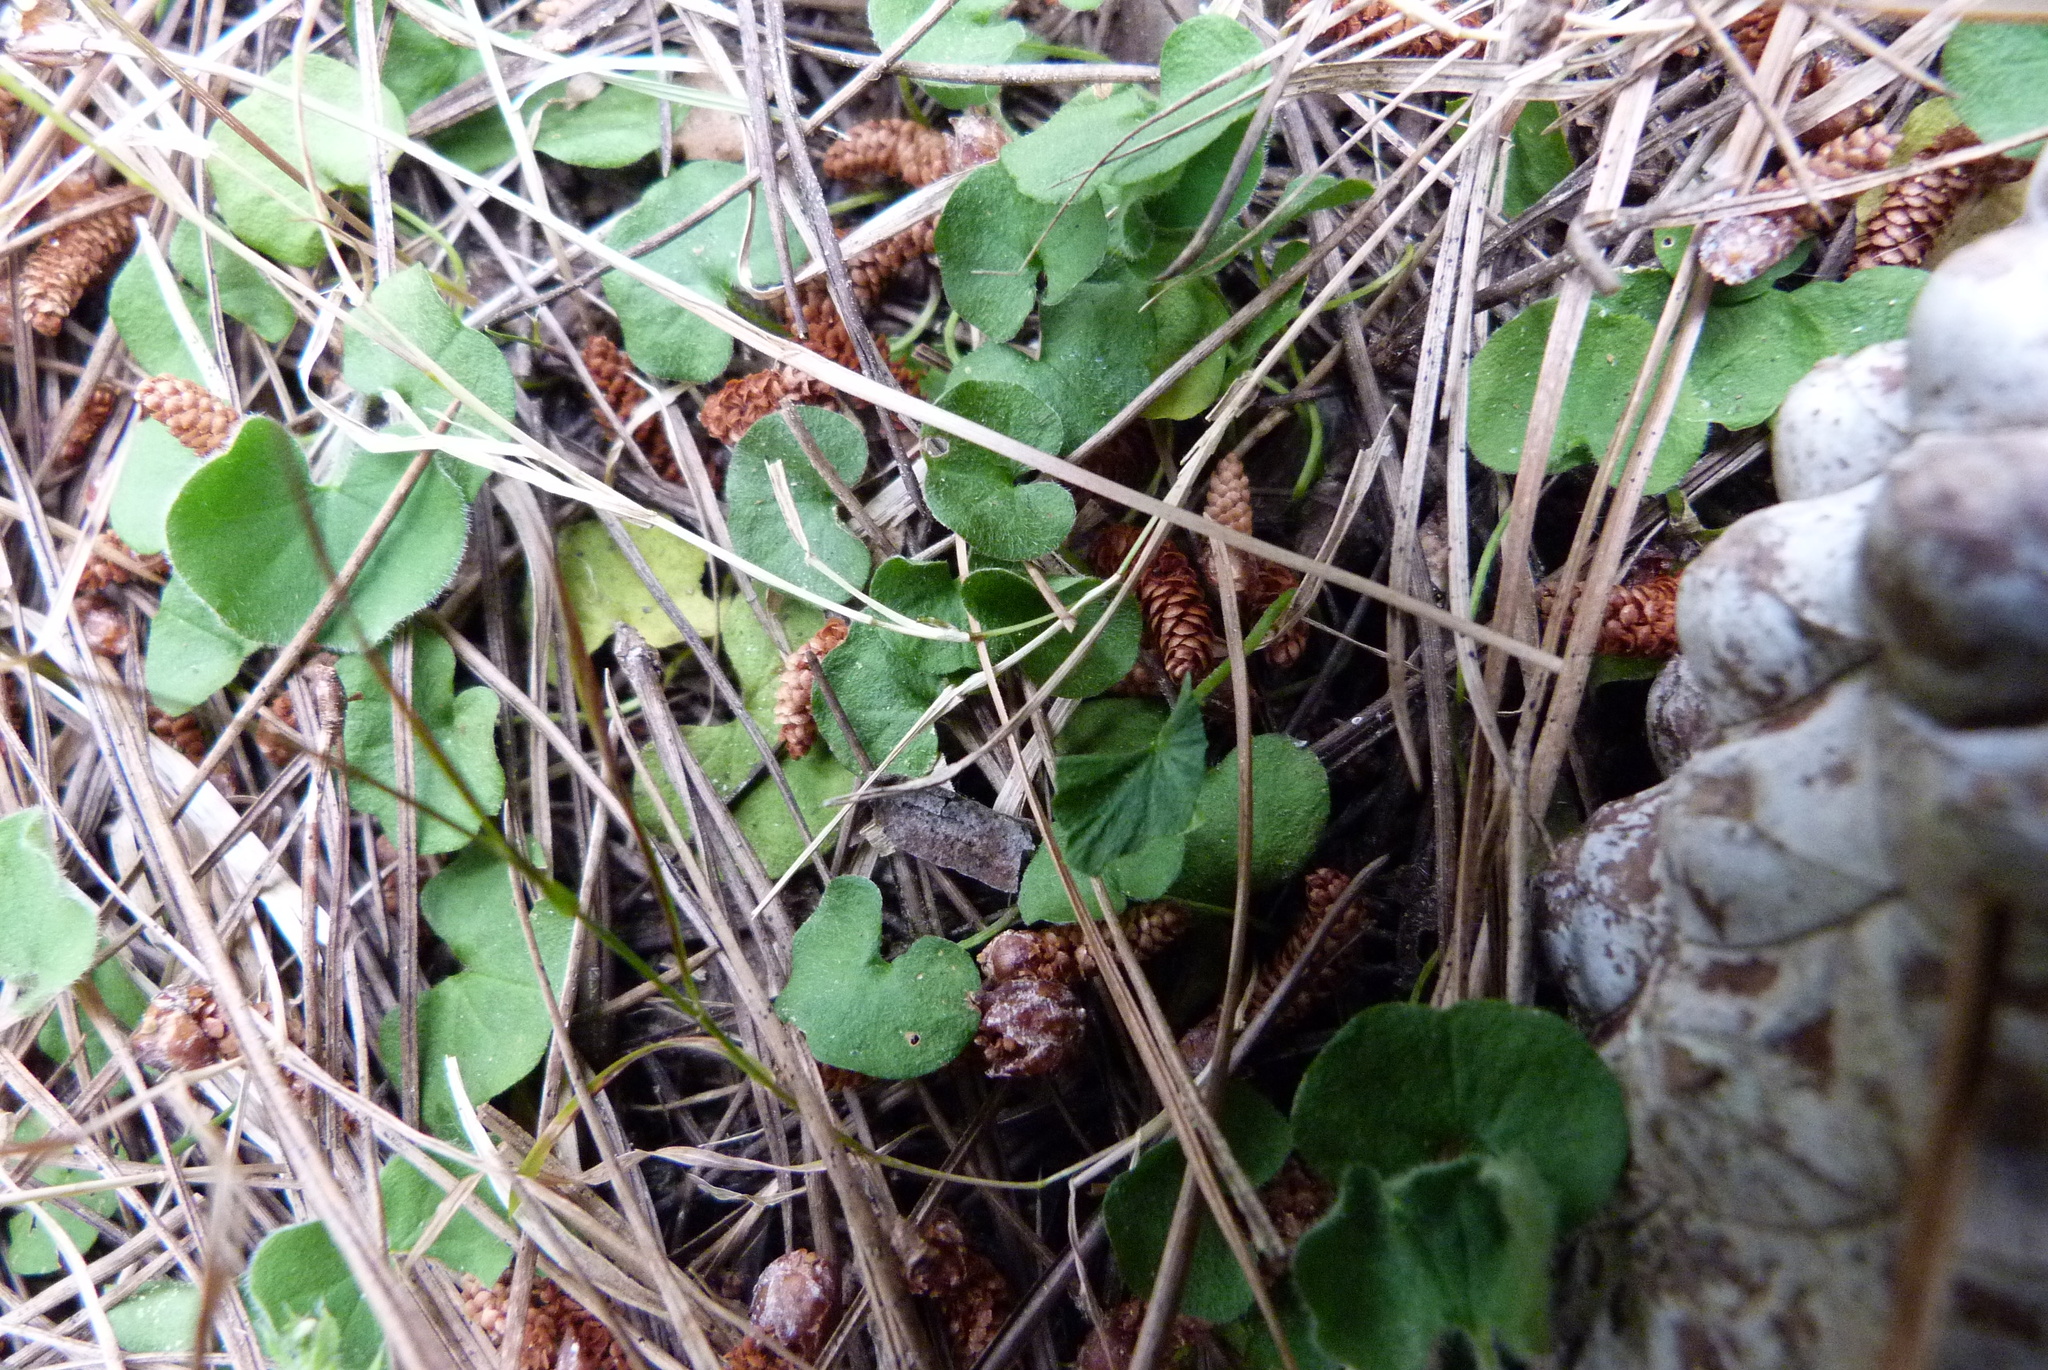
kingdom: Plantae
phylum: Tracheophyta
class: Magnoliopsida
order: Solanales
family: Convolvulaceae
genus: Dichondra
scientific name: Dichondra repens
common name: Kidneyweed
